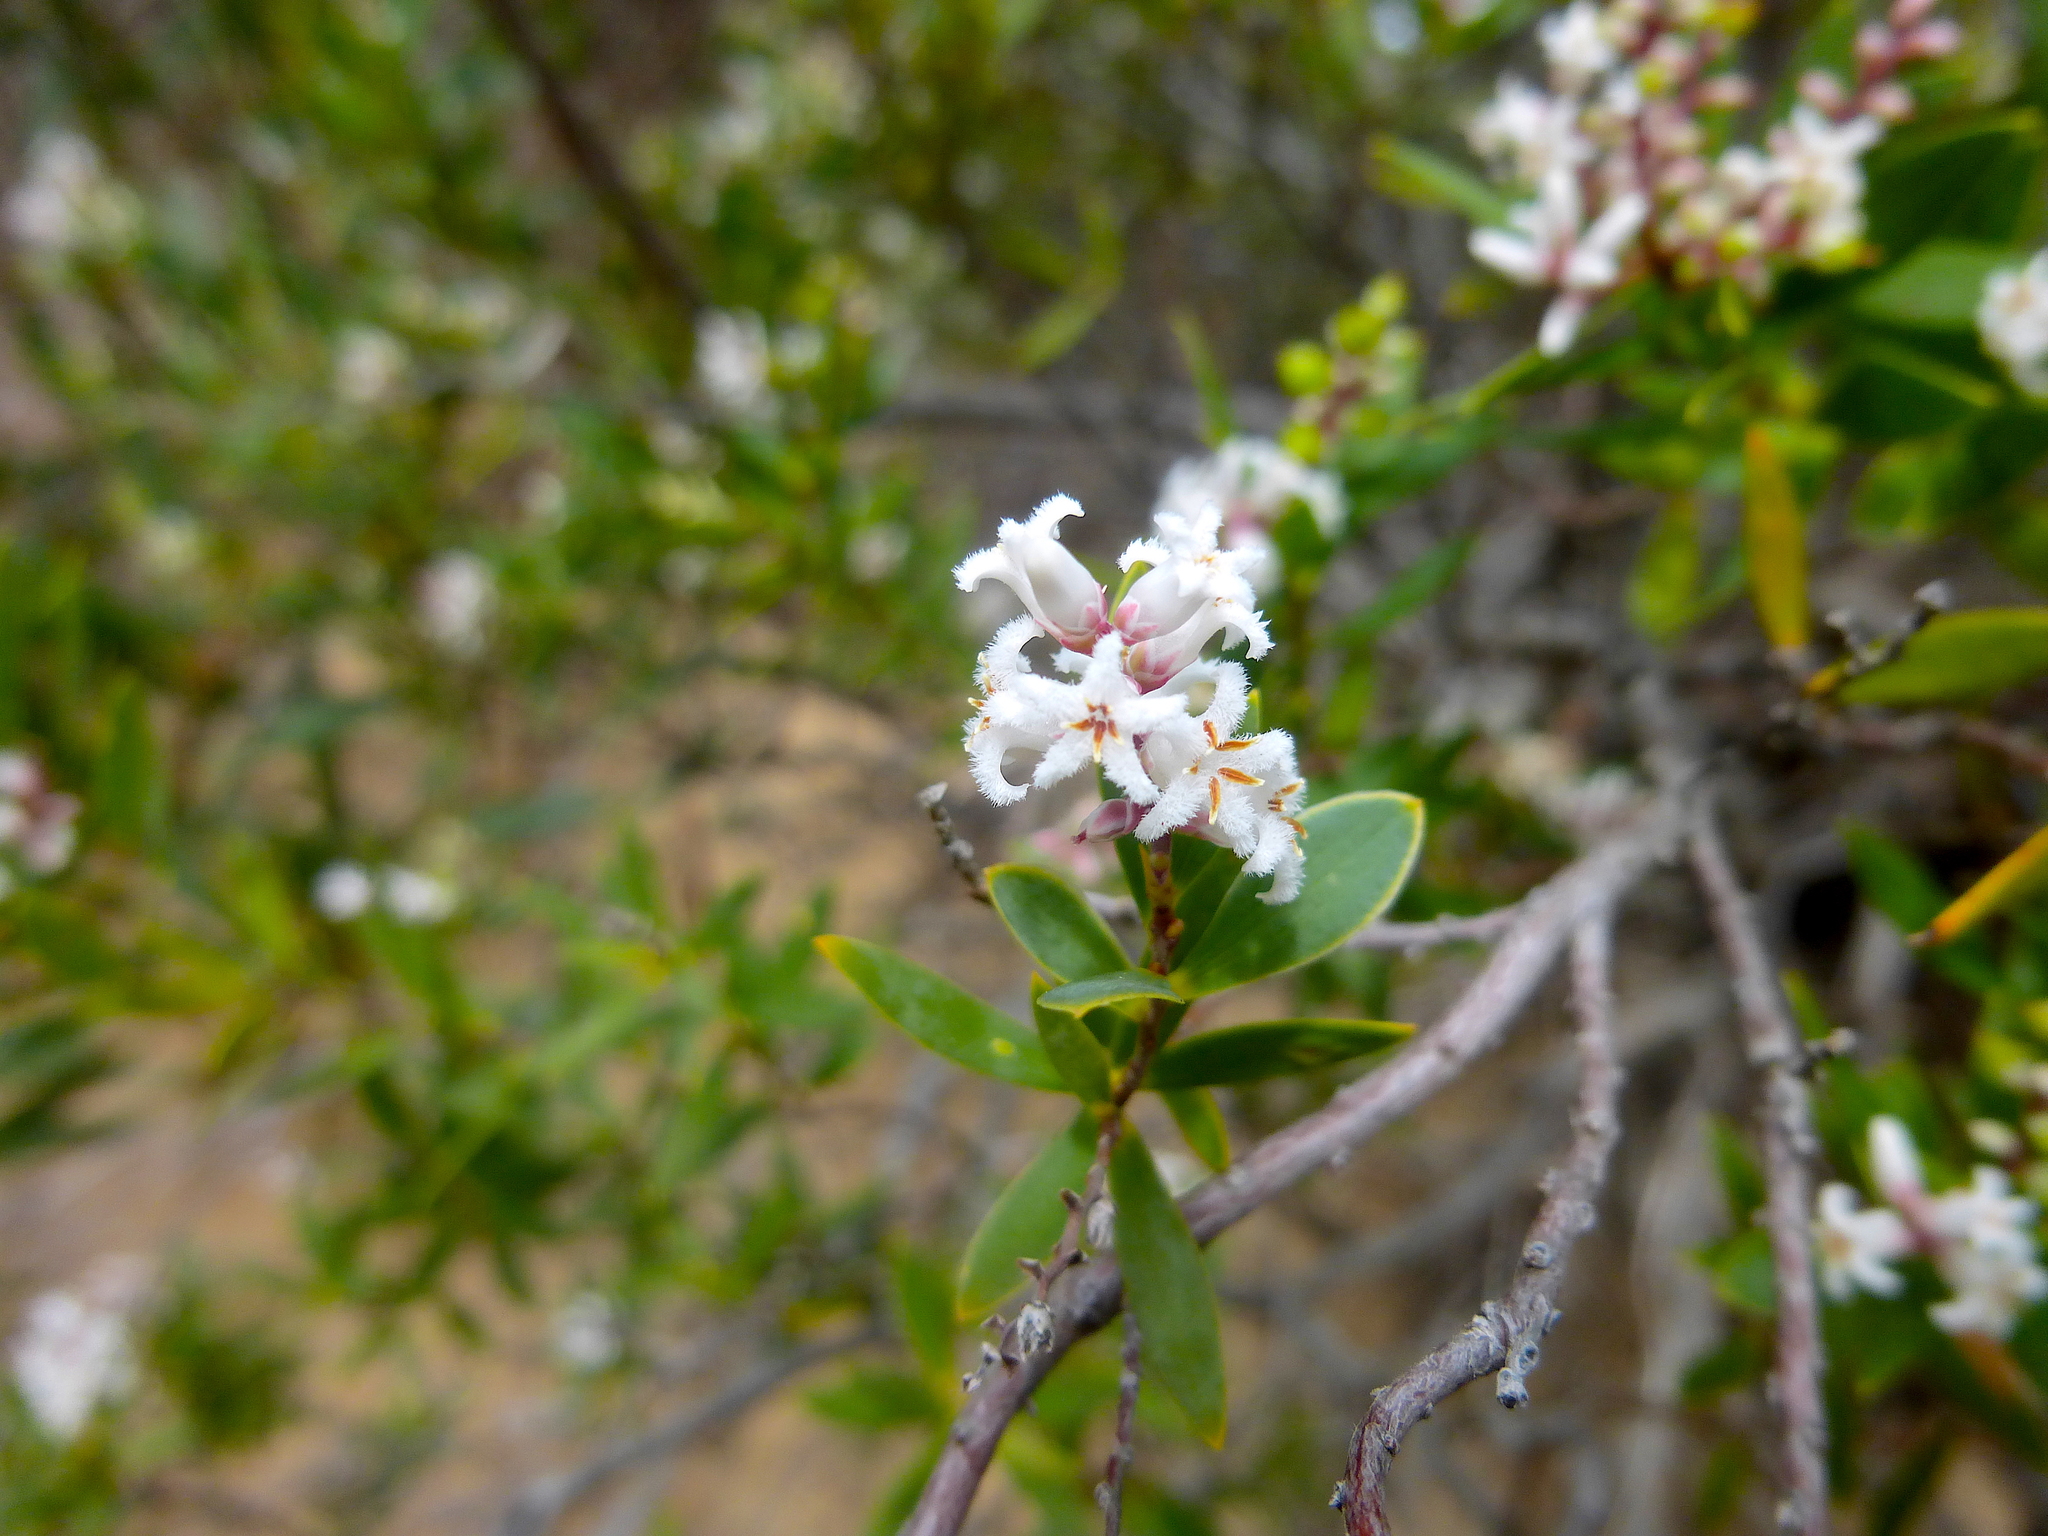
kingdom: Plantae
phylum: Tracheophyta
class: Magnoliopsida
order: Ericales
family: Ericaceae
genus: Leptecophylla
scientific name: Leptecophylla parvifolia
